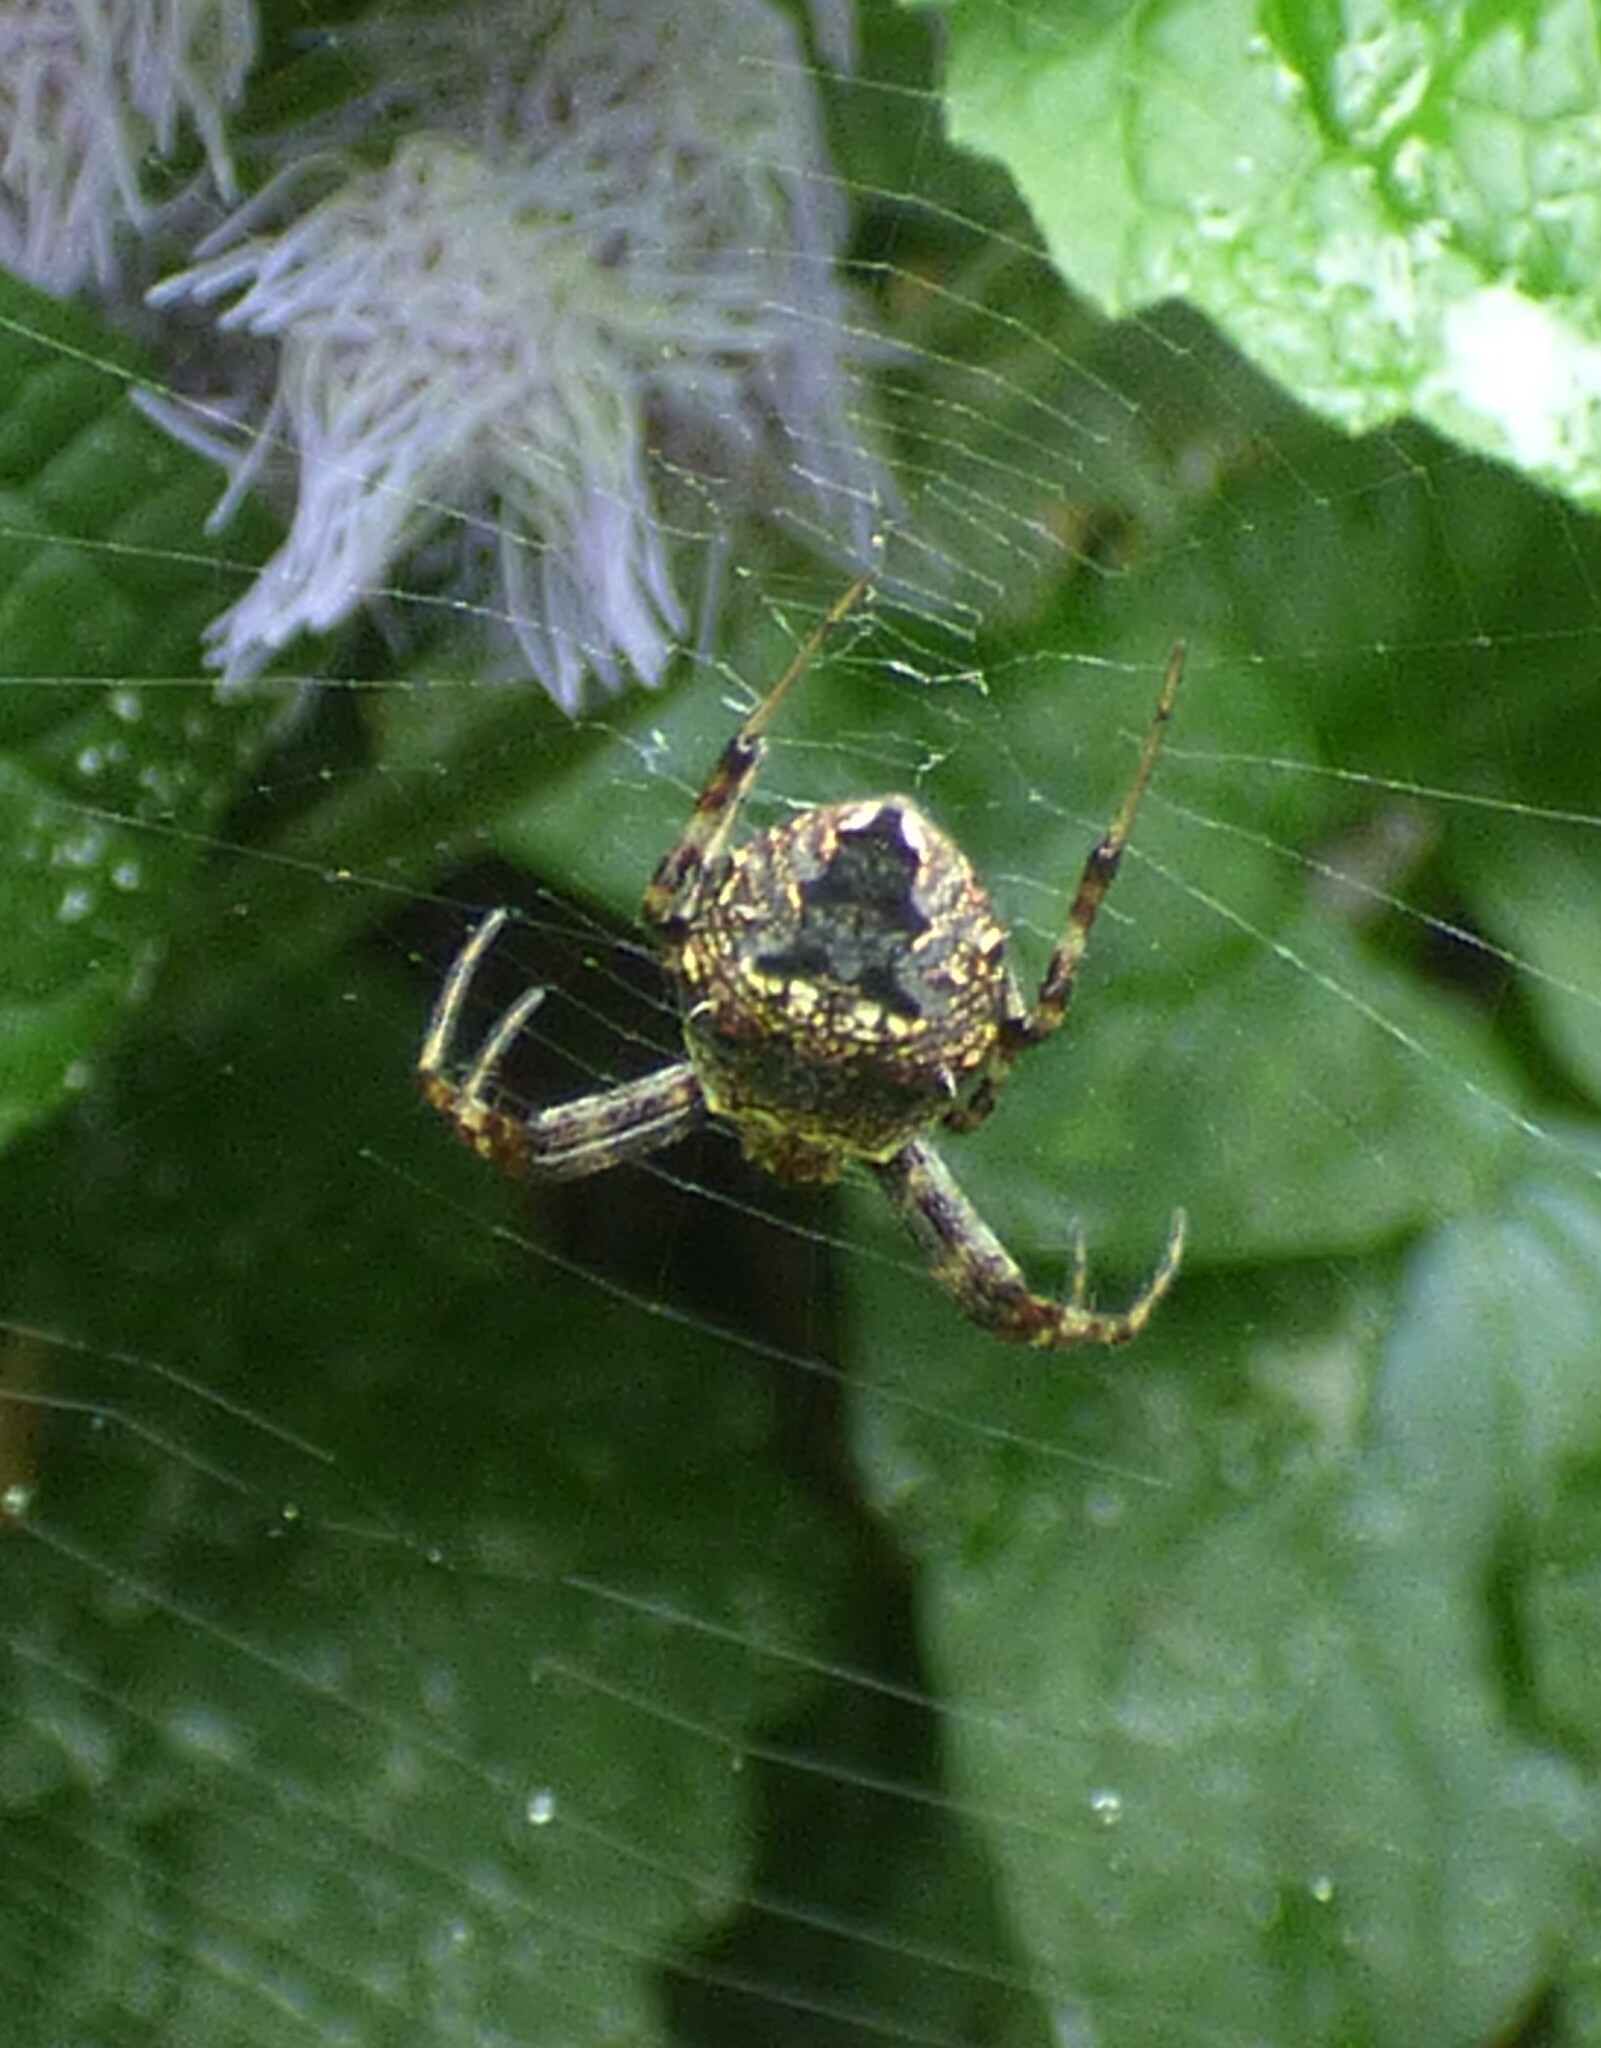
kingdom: Animalia
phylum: Arthropoda
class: Arachnida
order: Araneae
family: Araneidae
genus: Gea
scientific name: Gea heptagon
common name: Orb weavers
